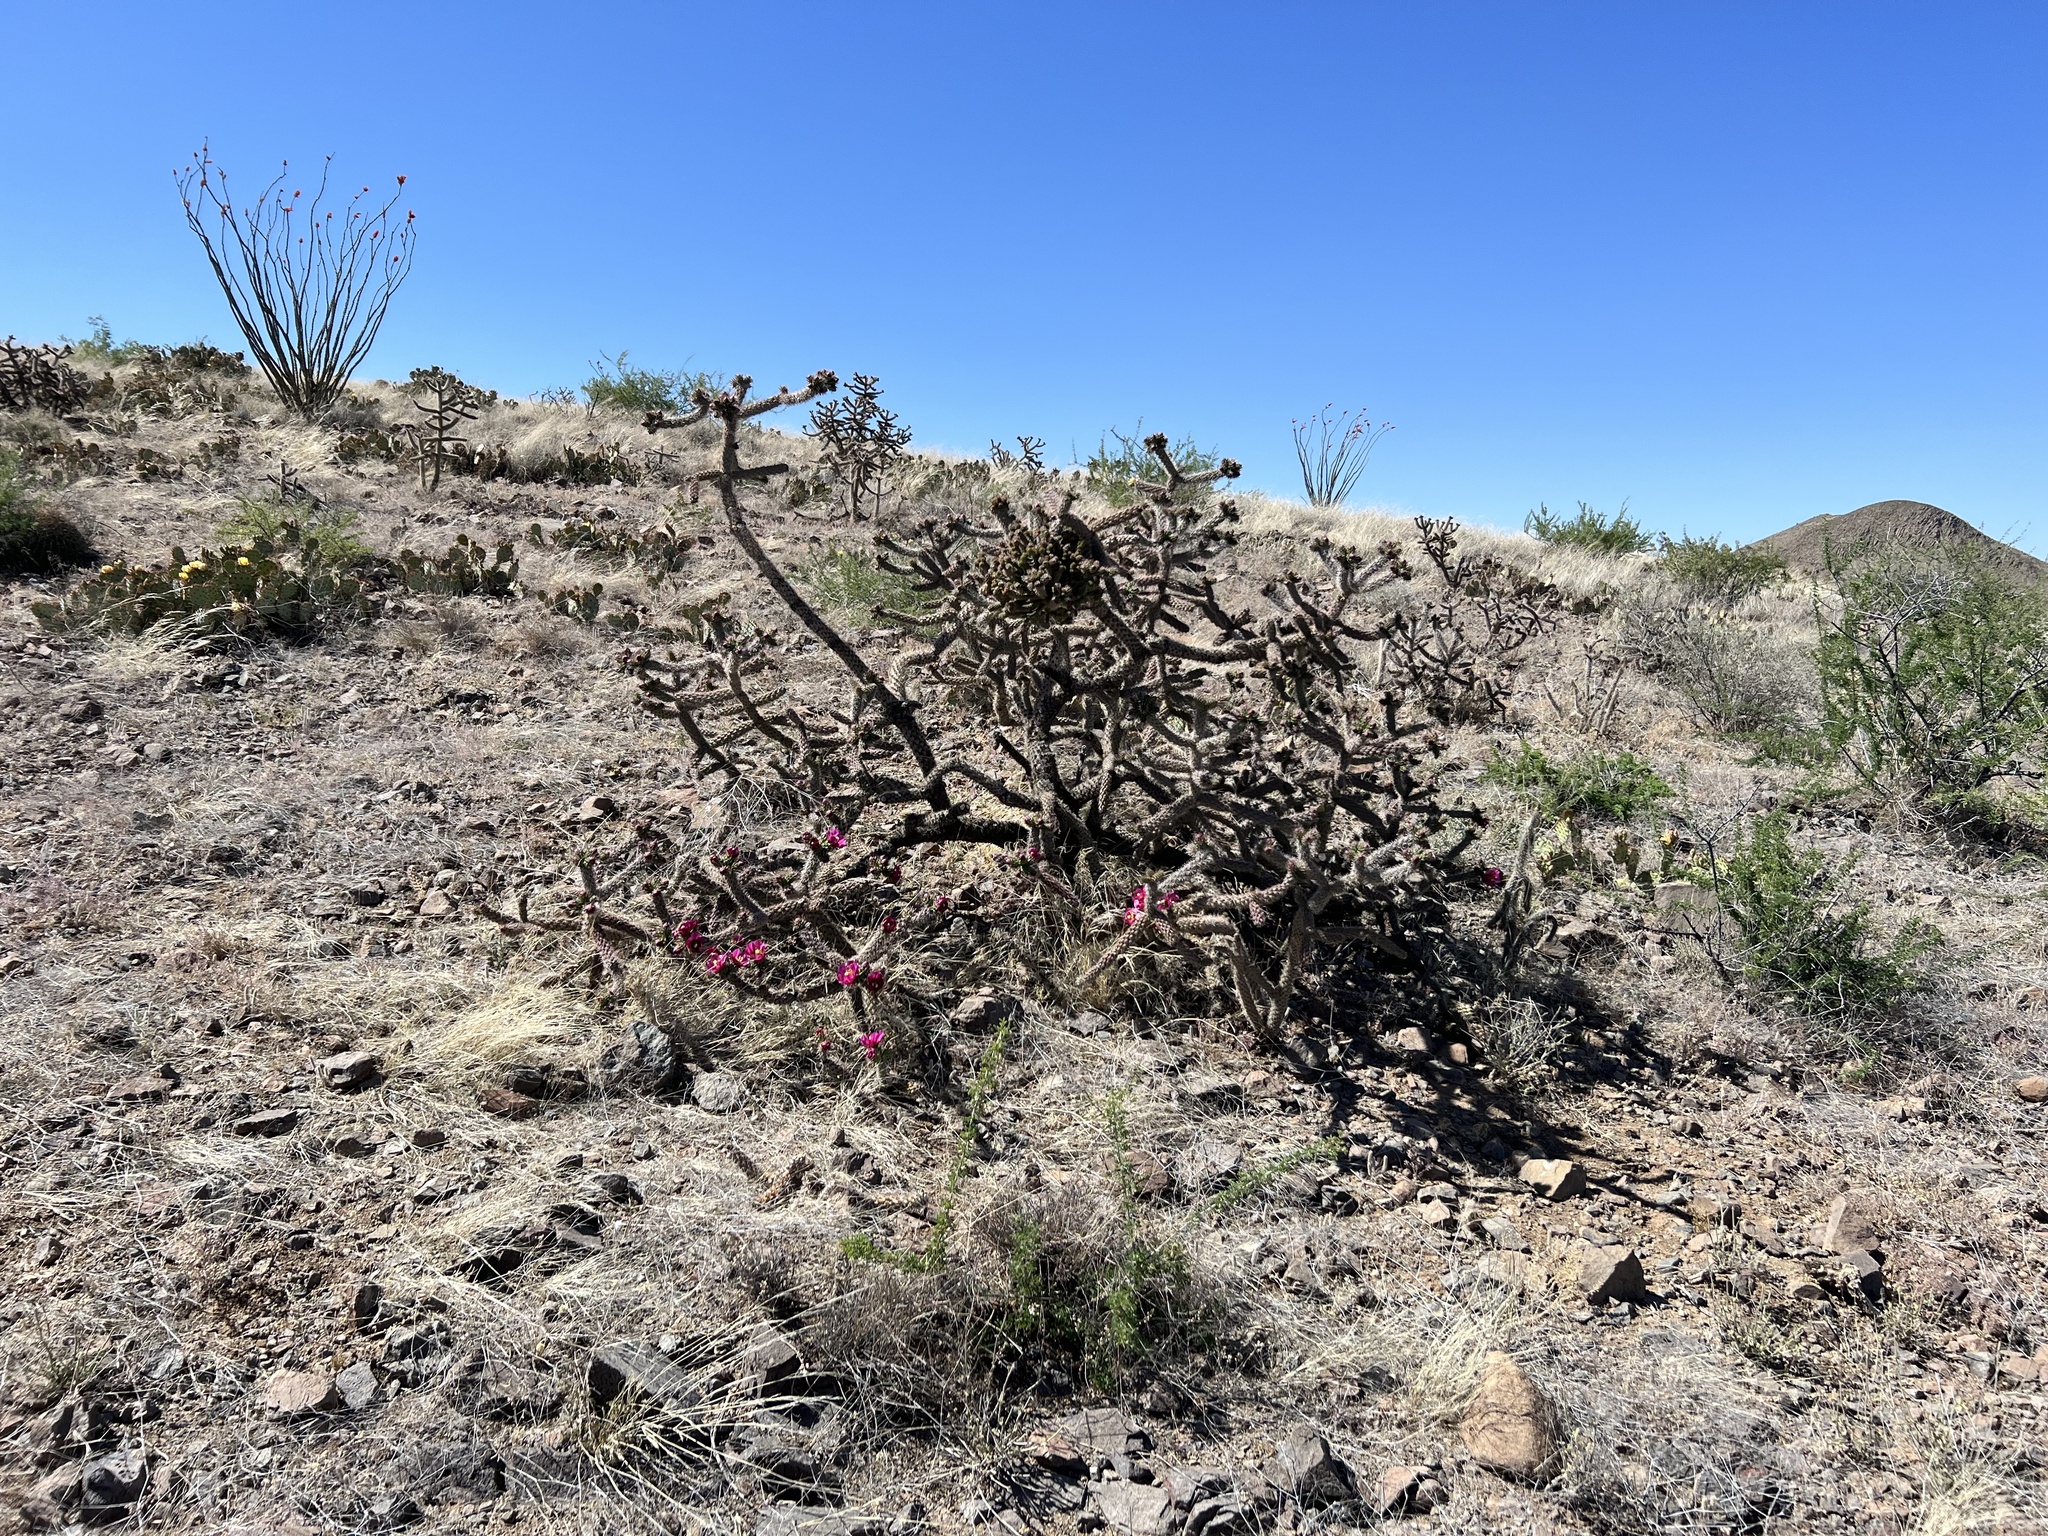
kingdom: Plantae
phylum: Tracheophyta
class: Magnoliopsida
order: Caryophyllales
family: Cactaceae
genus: Cylindropuntia
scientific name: Cylindropuntia imbricata
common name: Candelabrum cactus
